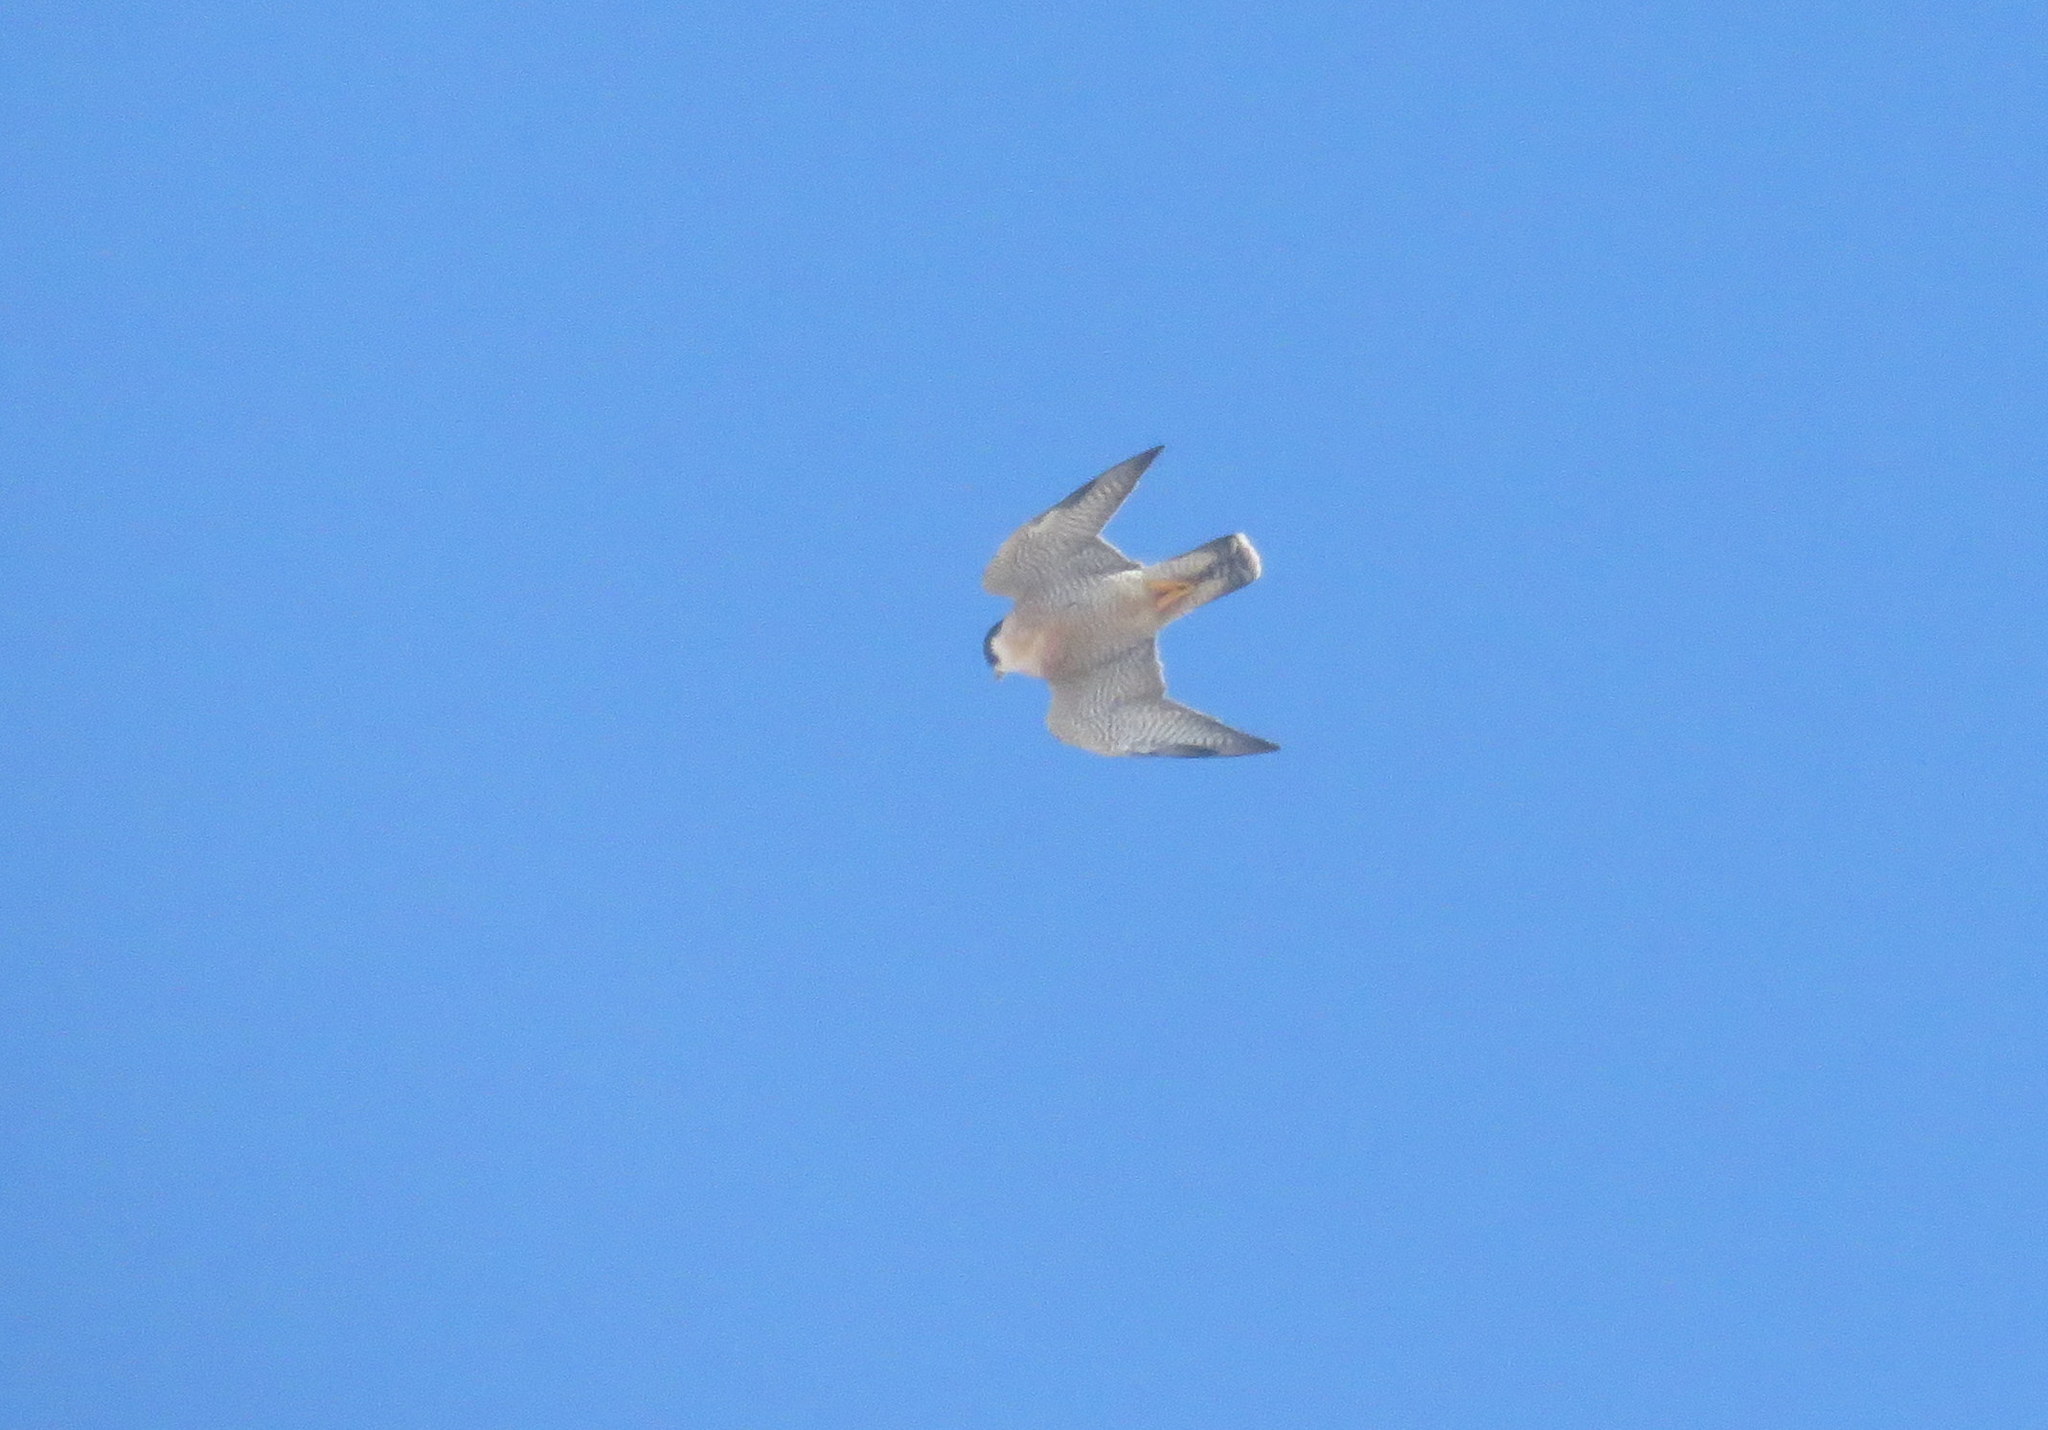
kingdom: Animalia
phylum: Chordata
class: Aves
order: Falconiformes
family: Falconidae
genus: Falco
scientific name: Falco peregrinus
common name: Peregrine falcon
